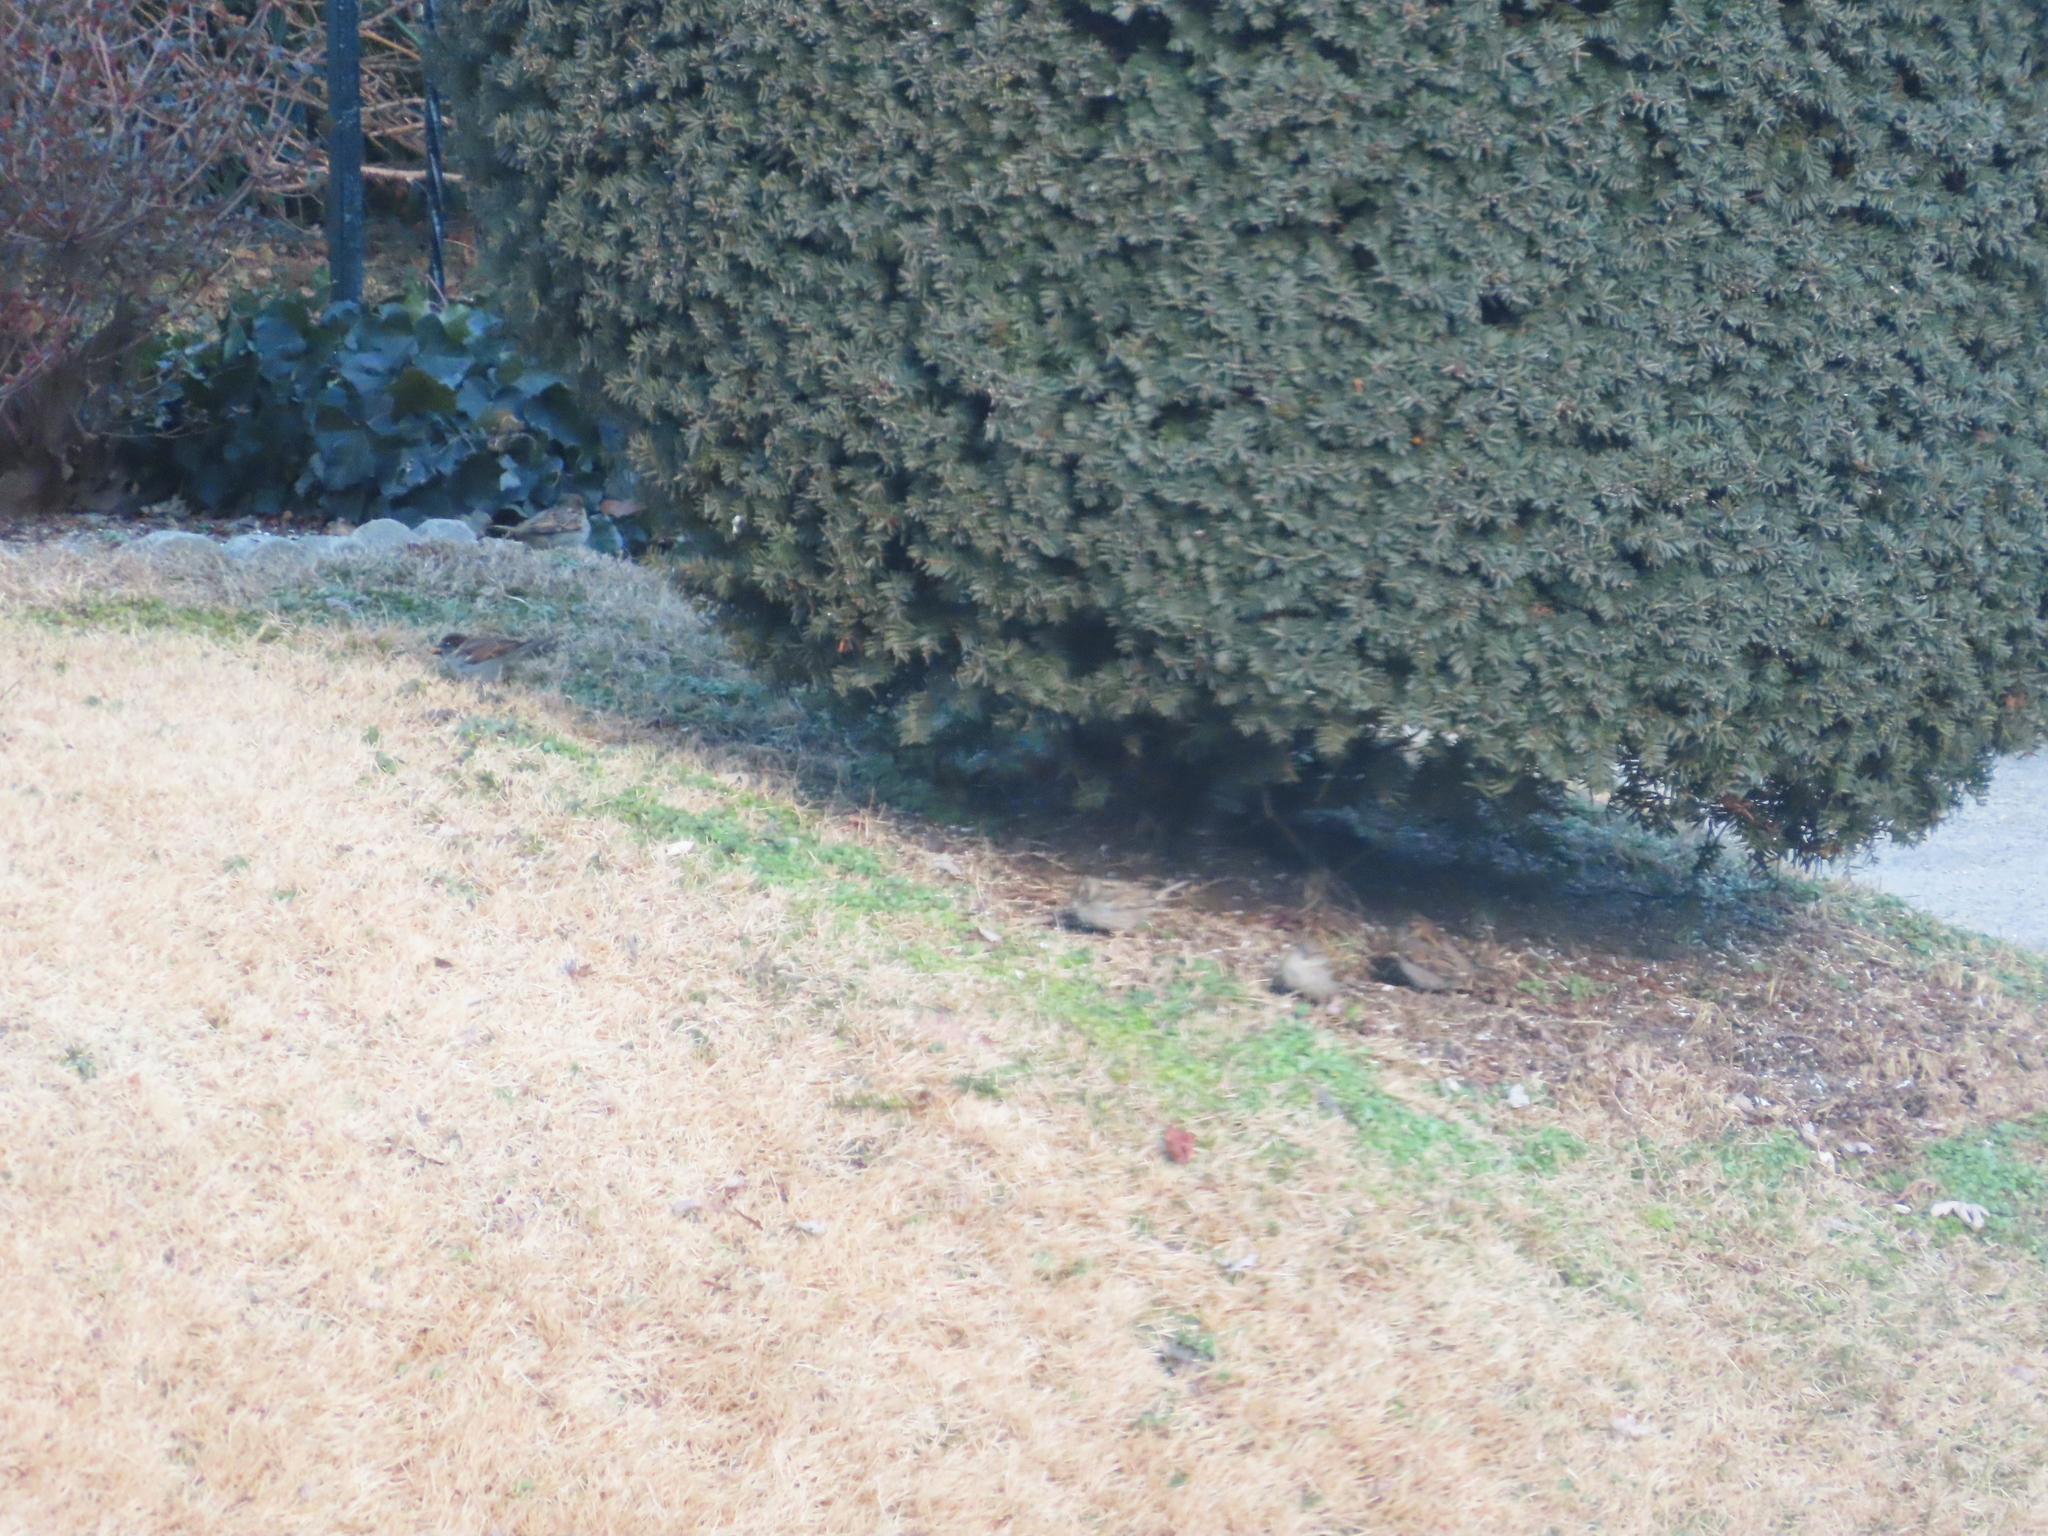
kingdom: Animalia
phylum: Chordata
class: Aves
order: Passeriformes
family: Passeridae
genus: Passer
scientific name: Passer domesticus
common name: House sparrow
